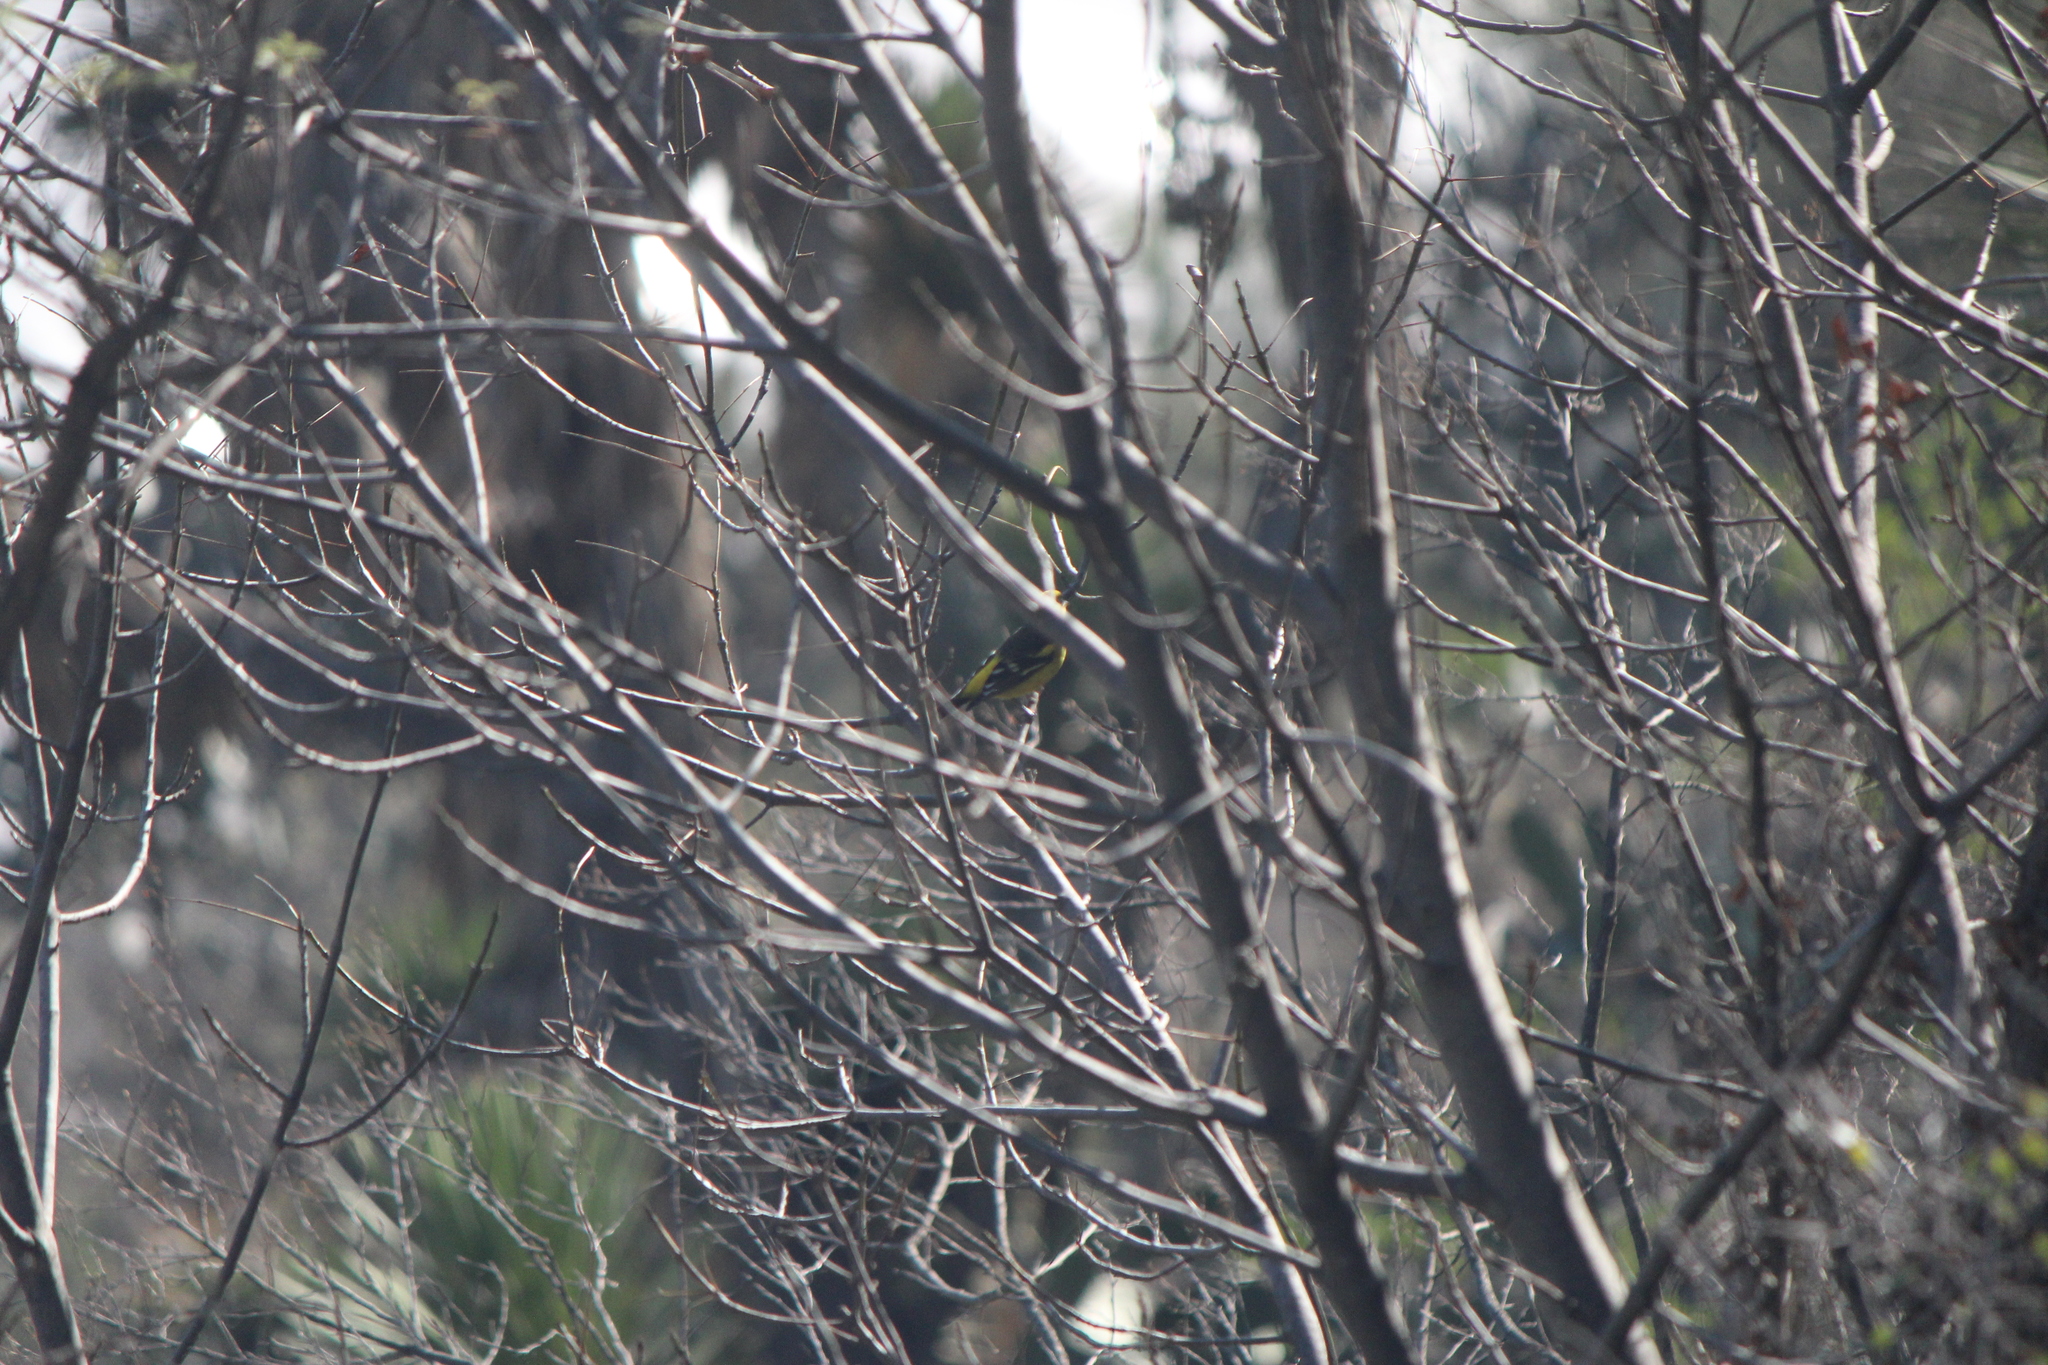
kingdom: Animalia
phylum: Chordata
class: Aves
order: Passeriformes
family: Cardinalidae
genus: Piranga
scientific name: Piranga ludoviciana
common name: Western tanager
